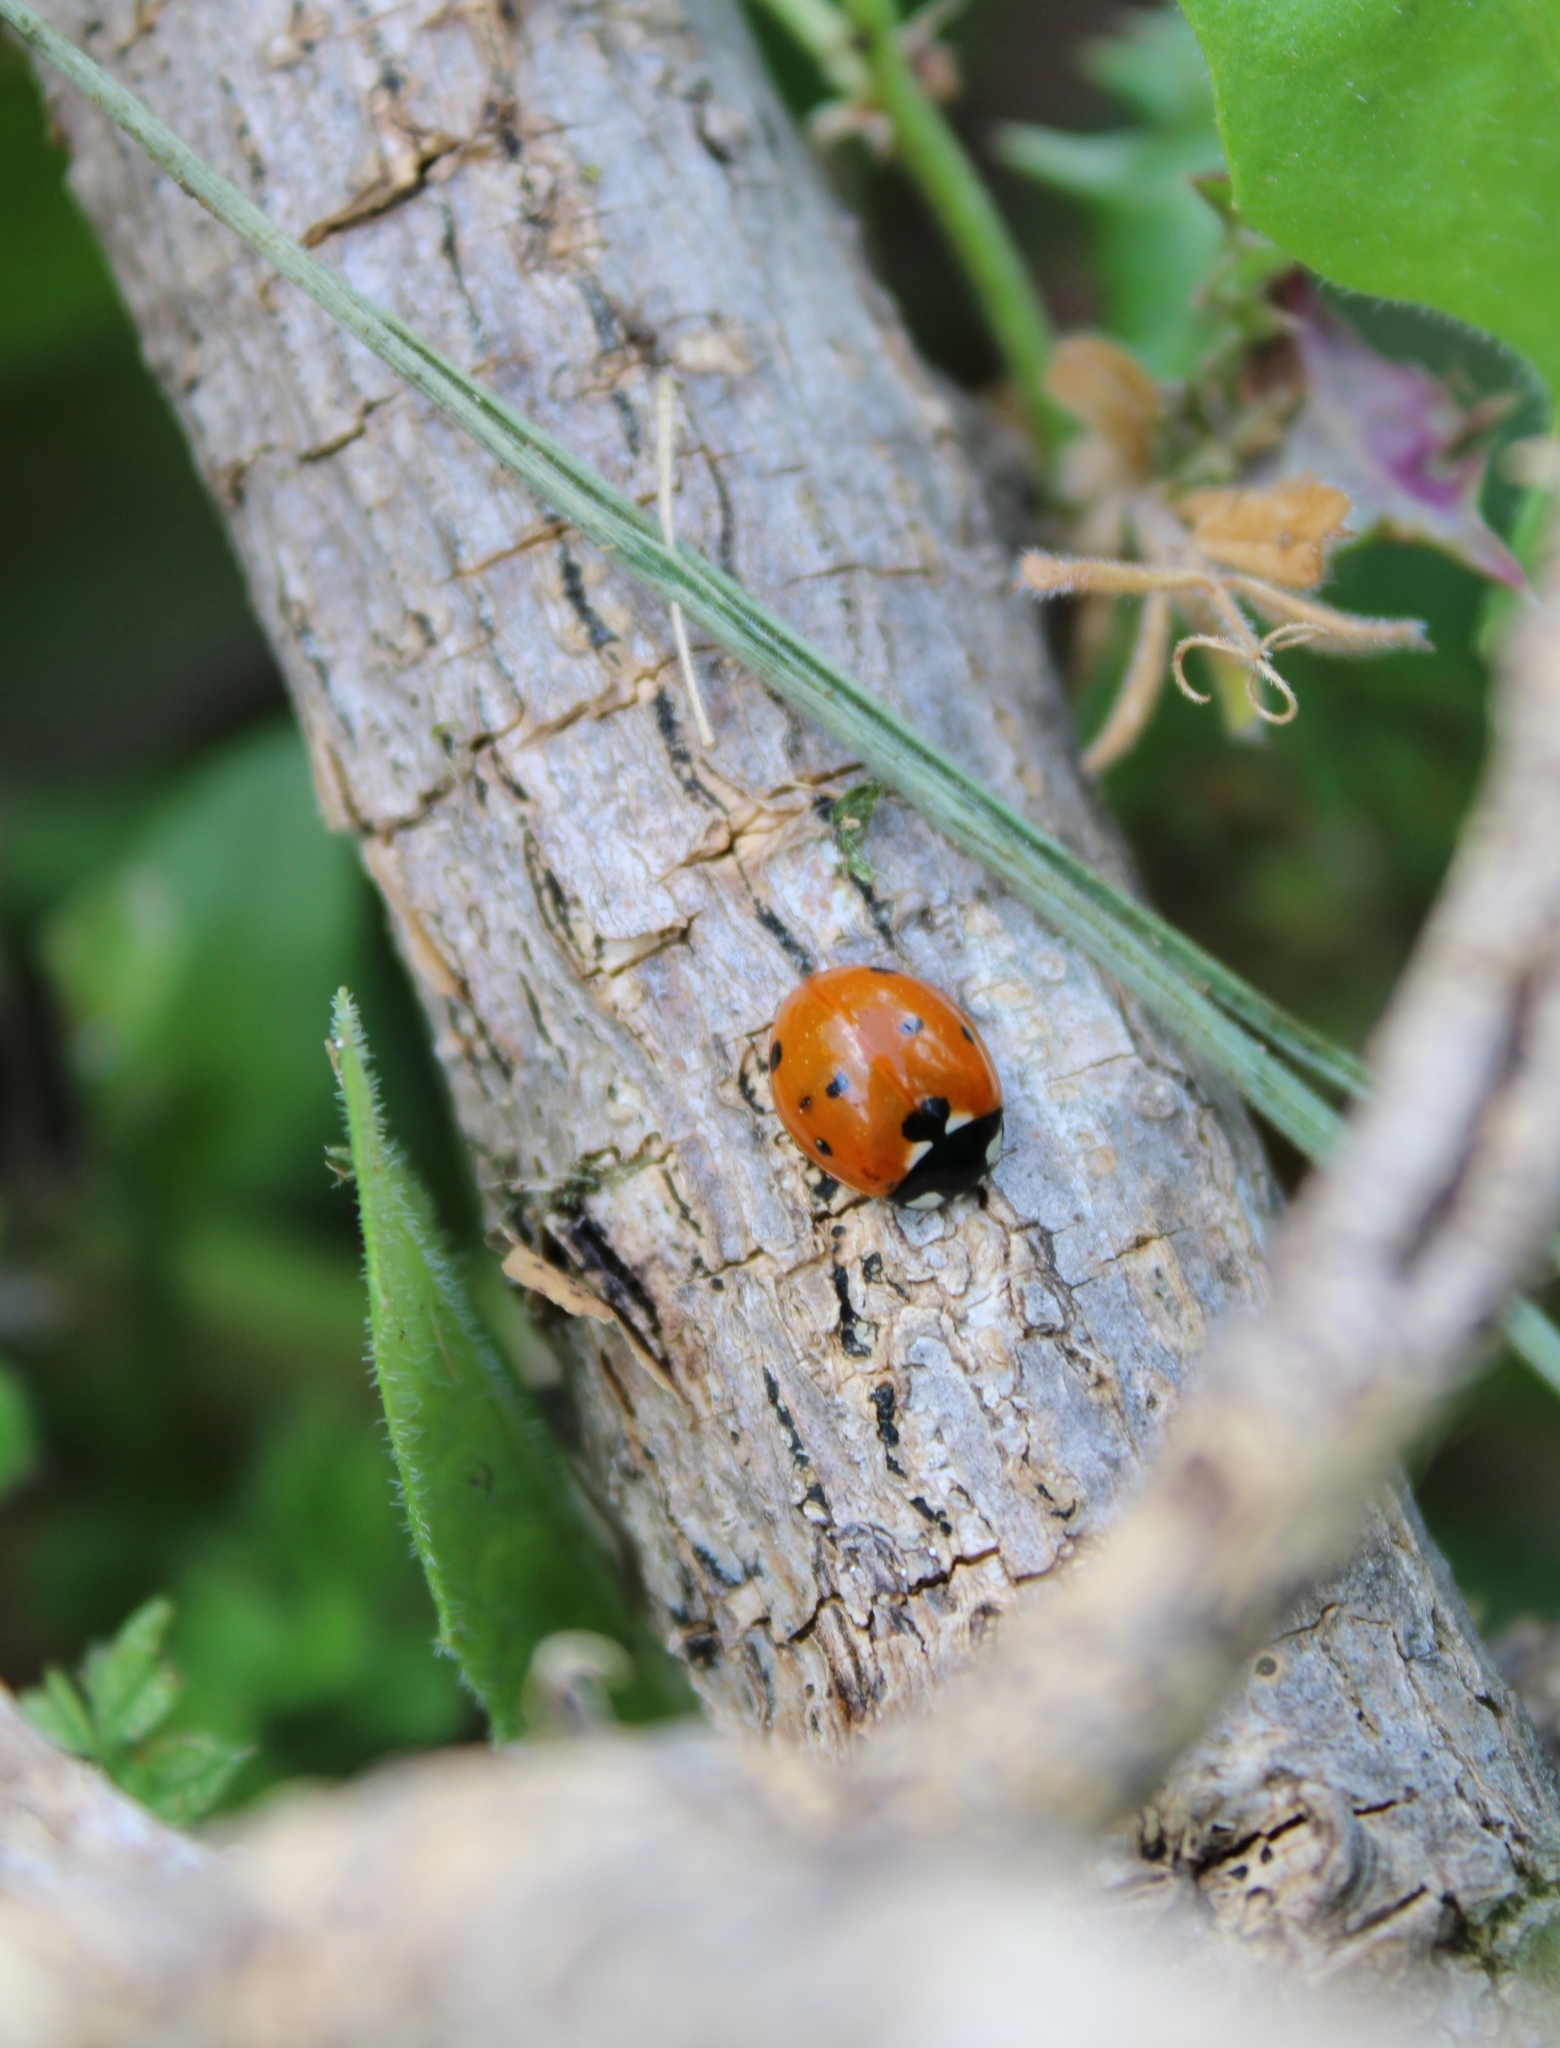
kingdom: Animalia
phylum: Arthropoda
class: Insecta
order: Coleoptera
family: Coccinellidae
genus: Coccinella
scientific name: Coccinella septempunctata
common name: Sevenspotted lady beetle
